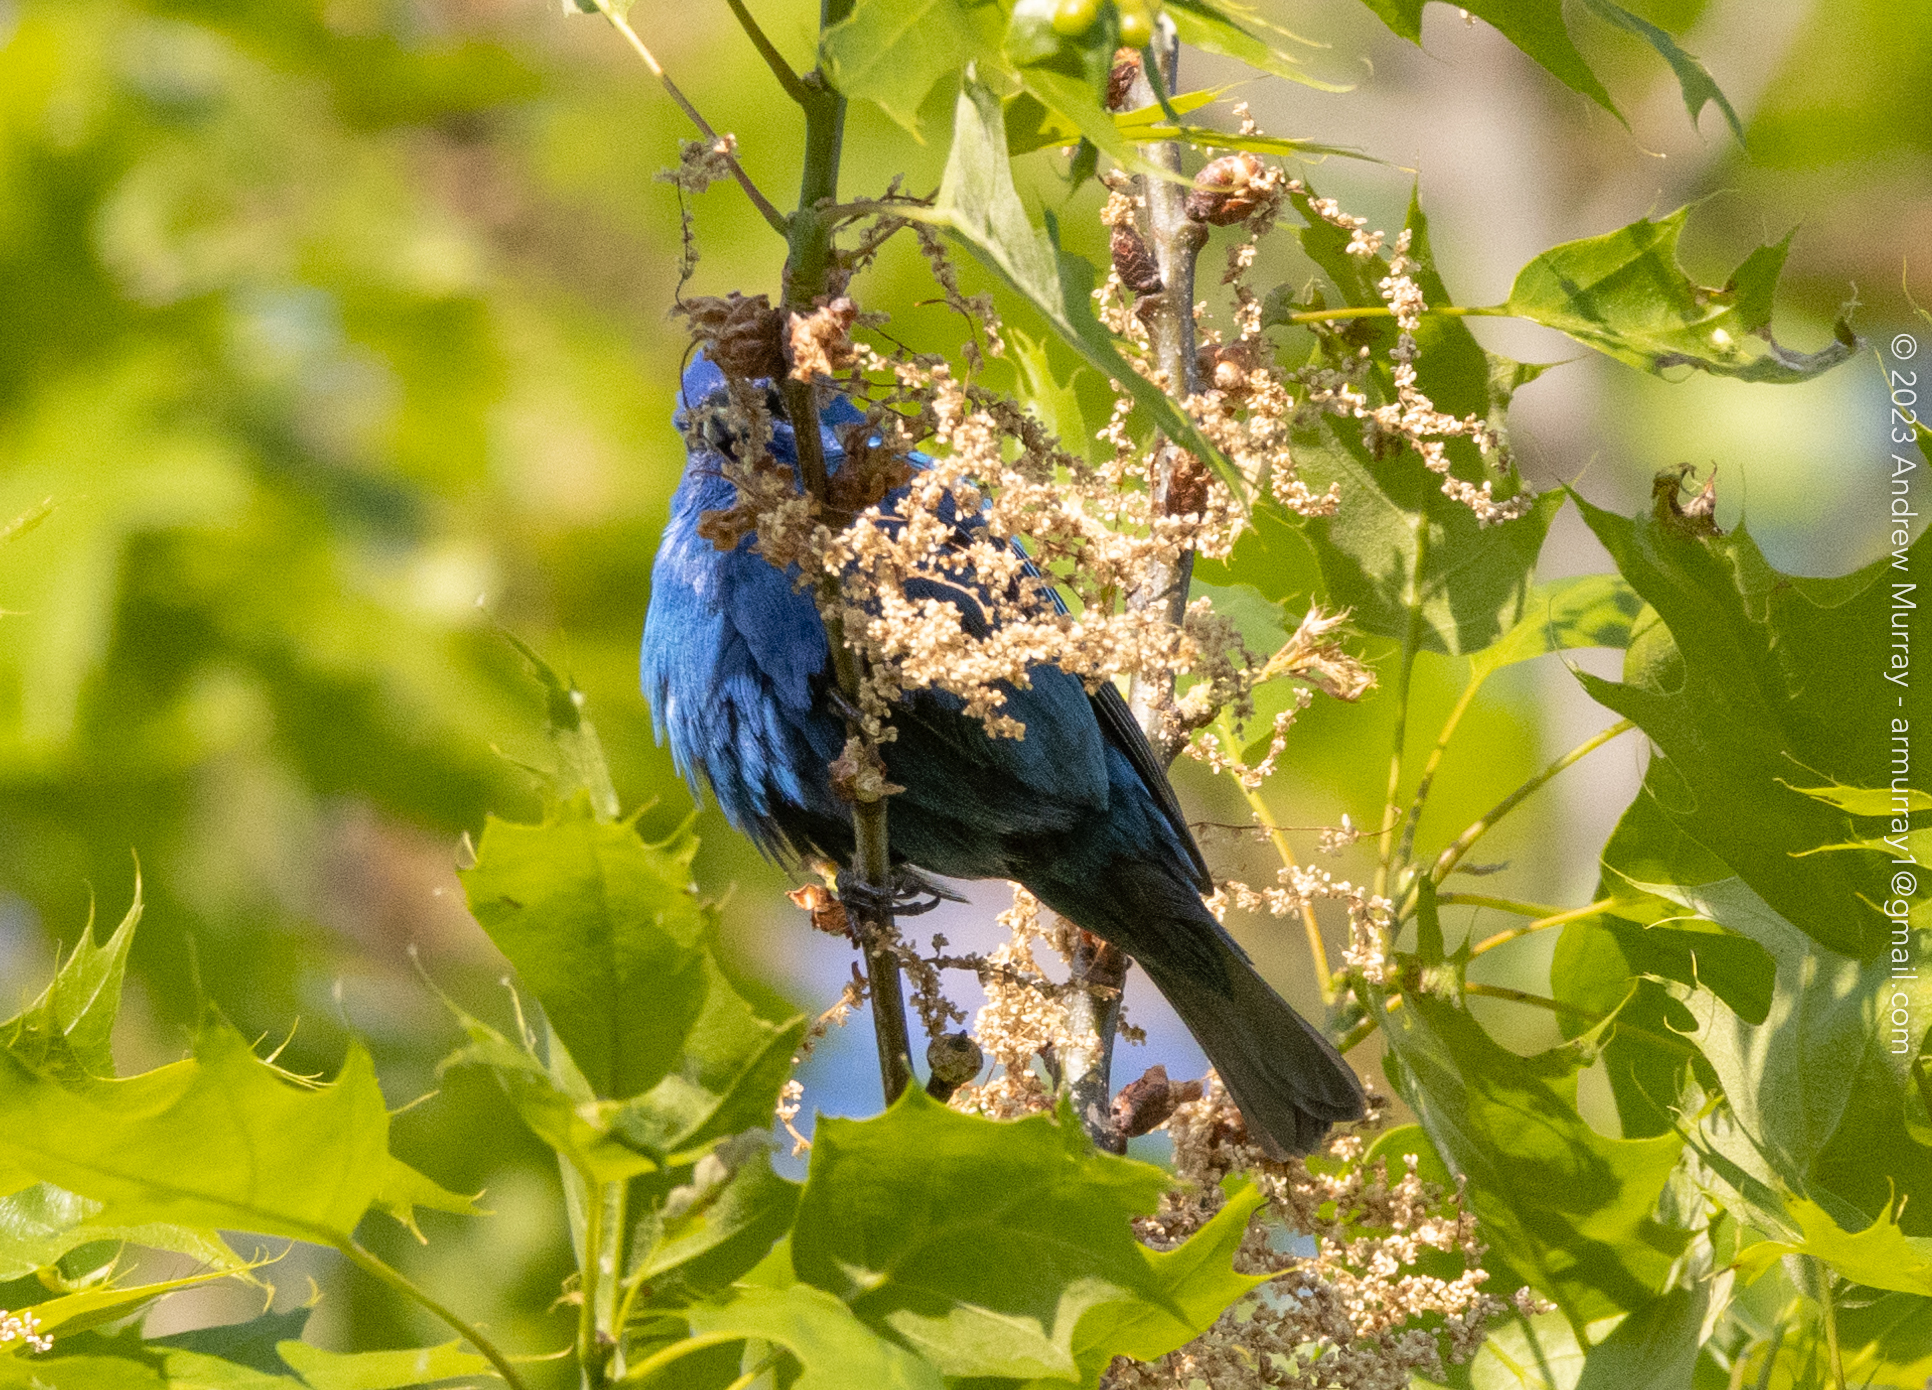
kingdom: Animalia
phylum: Chordata
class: Aves
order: Passeriformes
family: Cardinalidae
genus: Passerina
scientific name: Passerina cyanea
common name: Indigo bunting
